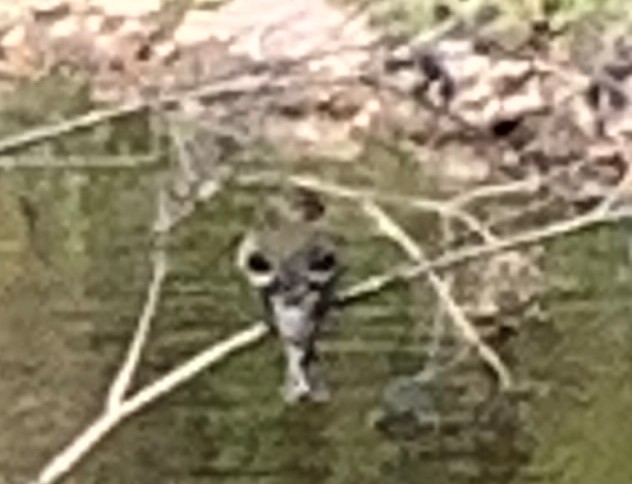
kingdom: Animalia
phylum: Chordata
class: Aves
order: Passeriformes
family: Fringillidae
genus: Spinus
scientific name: Spinus tristis
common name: American goldfinch
